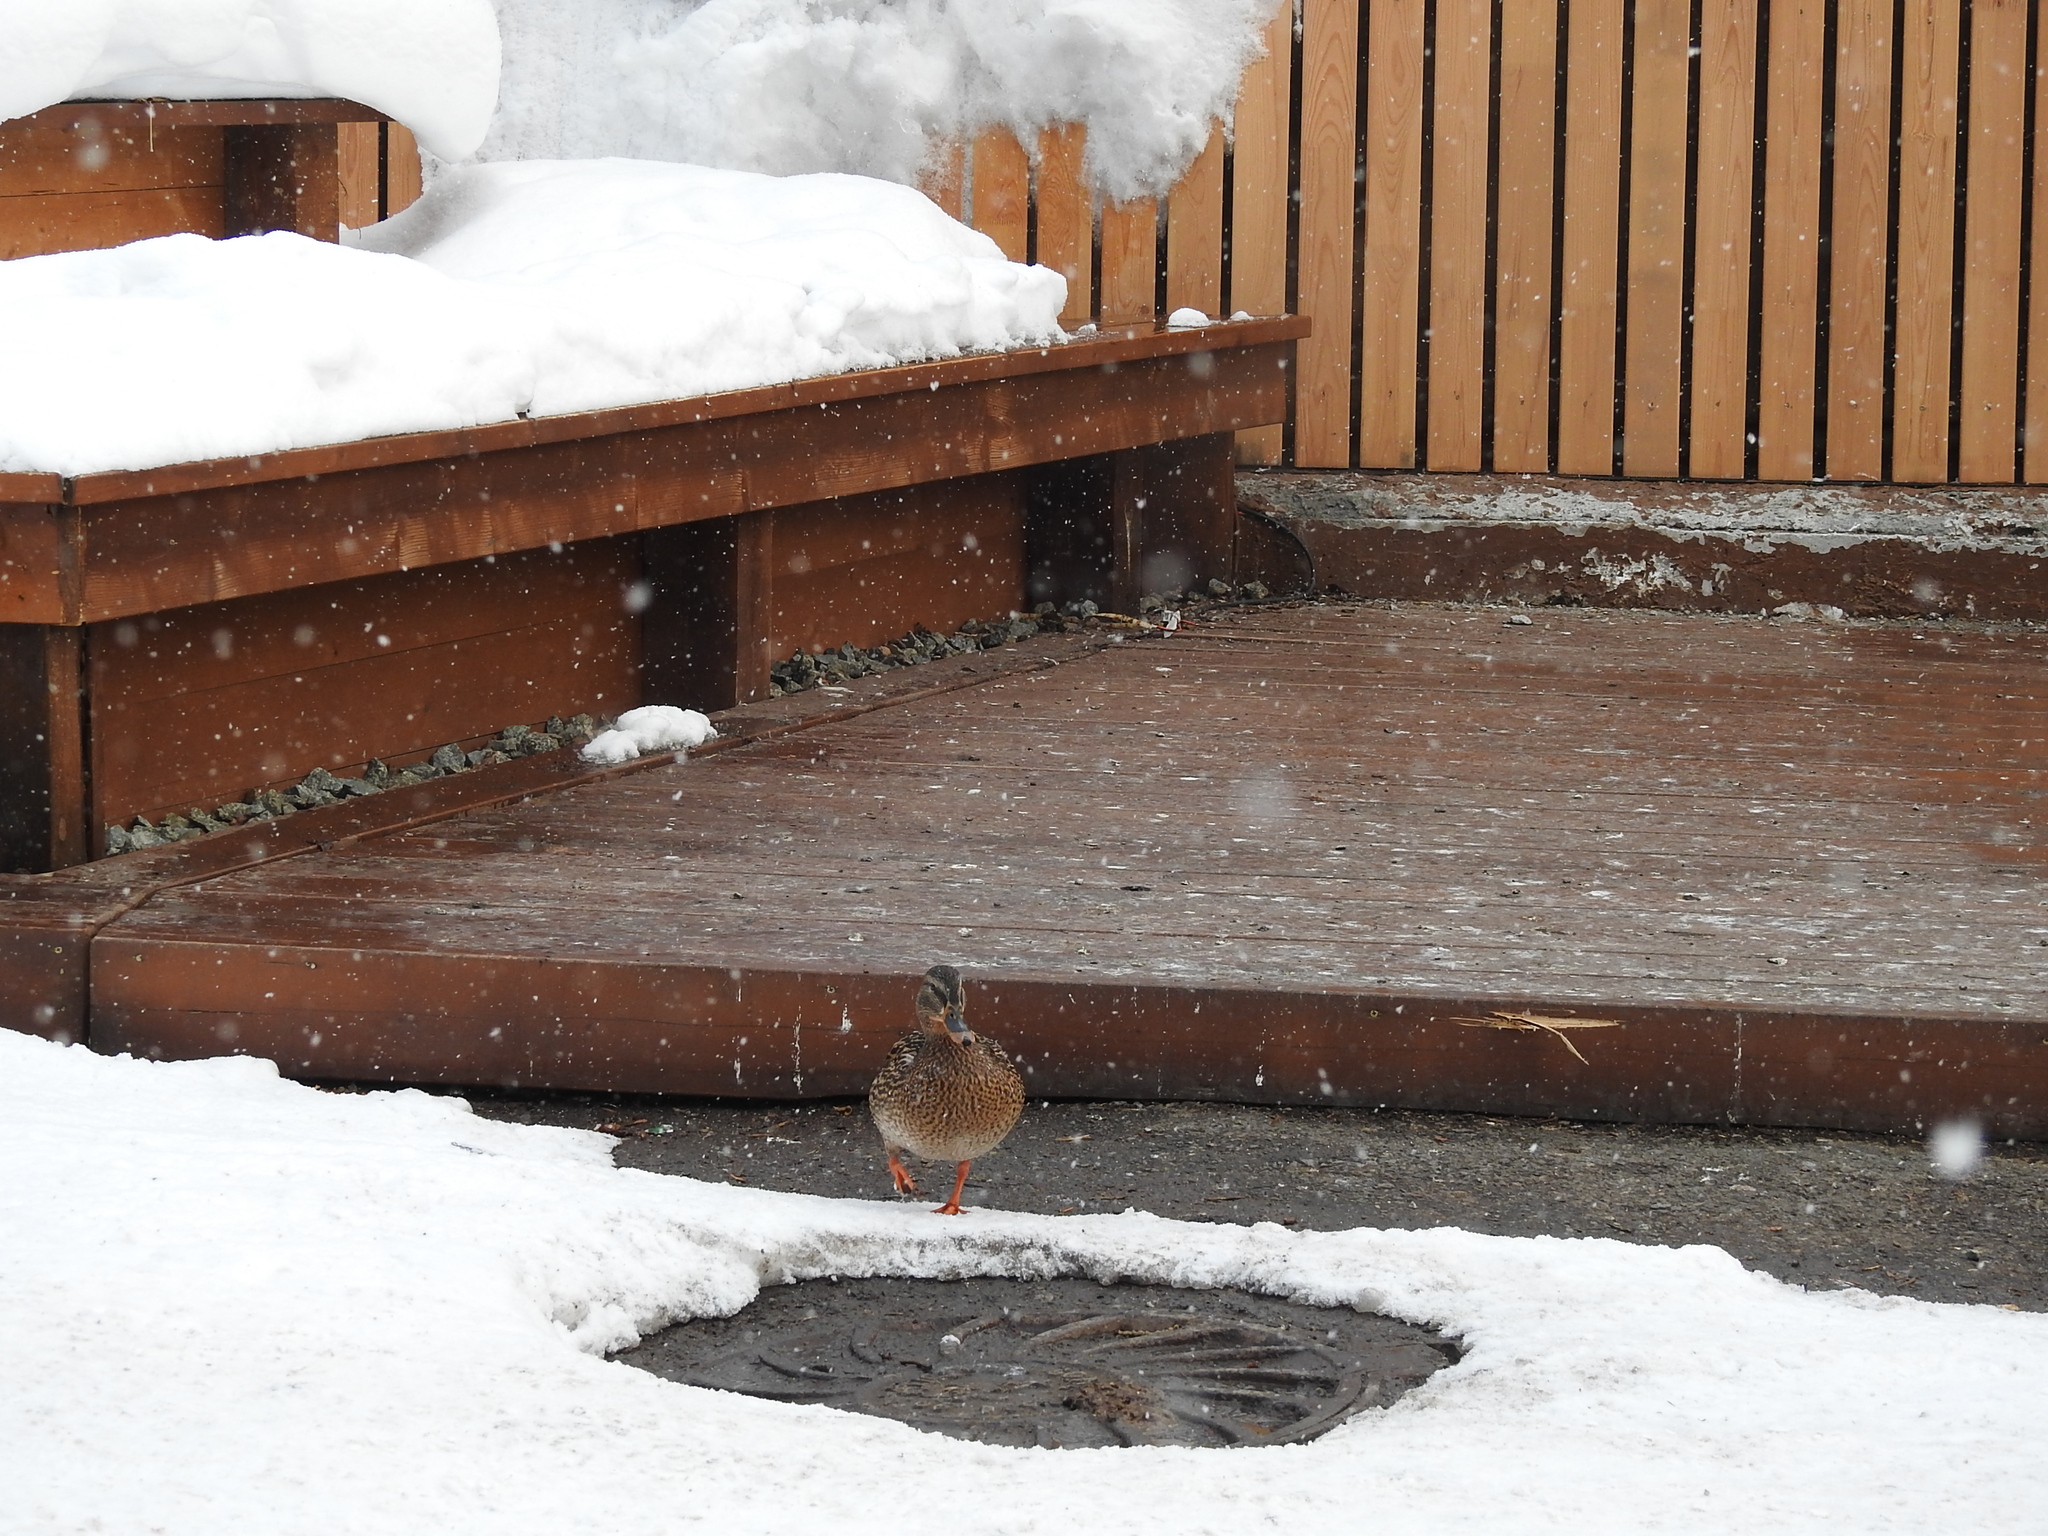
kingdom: Animalia
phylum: Chordata
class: Aves
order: Anseriformes
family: Anatidae
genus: Anas
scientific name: Anas platyrhynchos
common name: Mallard
